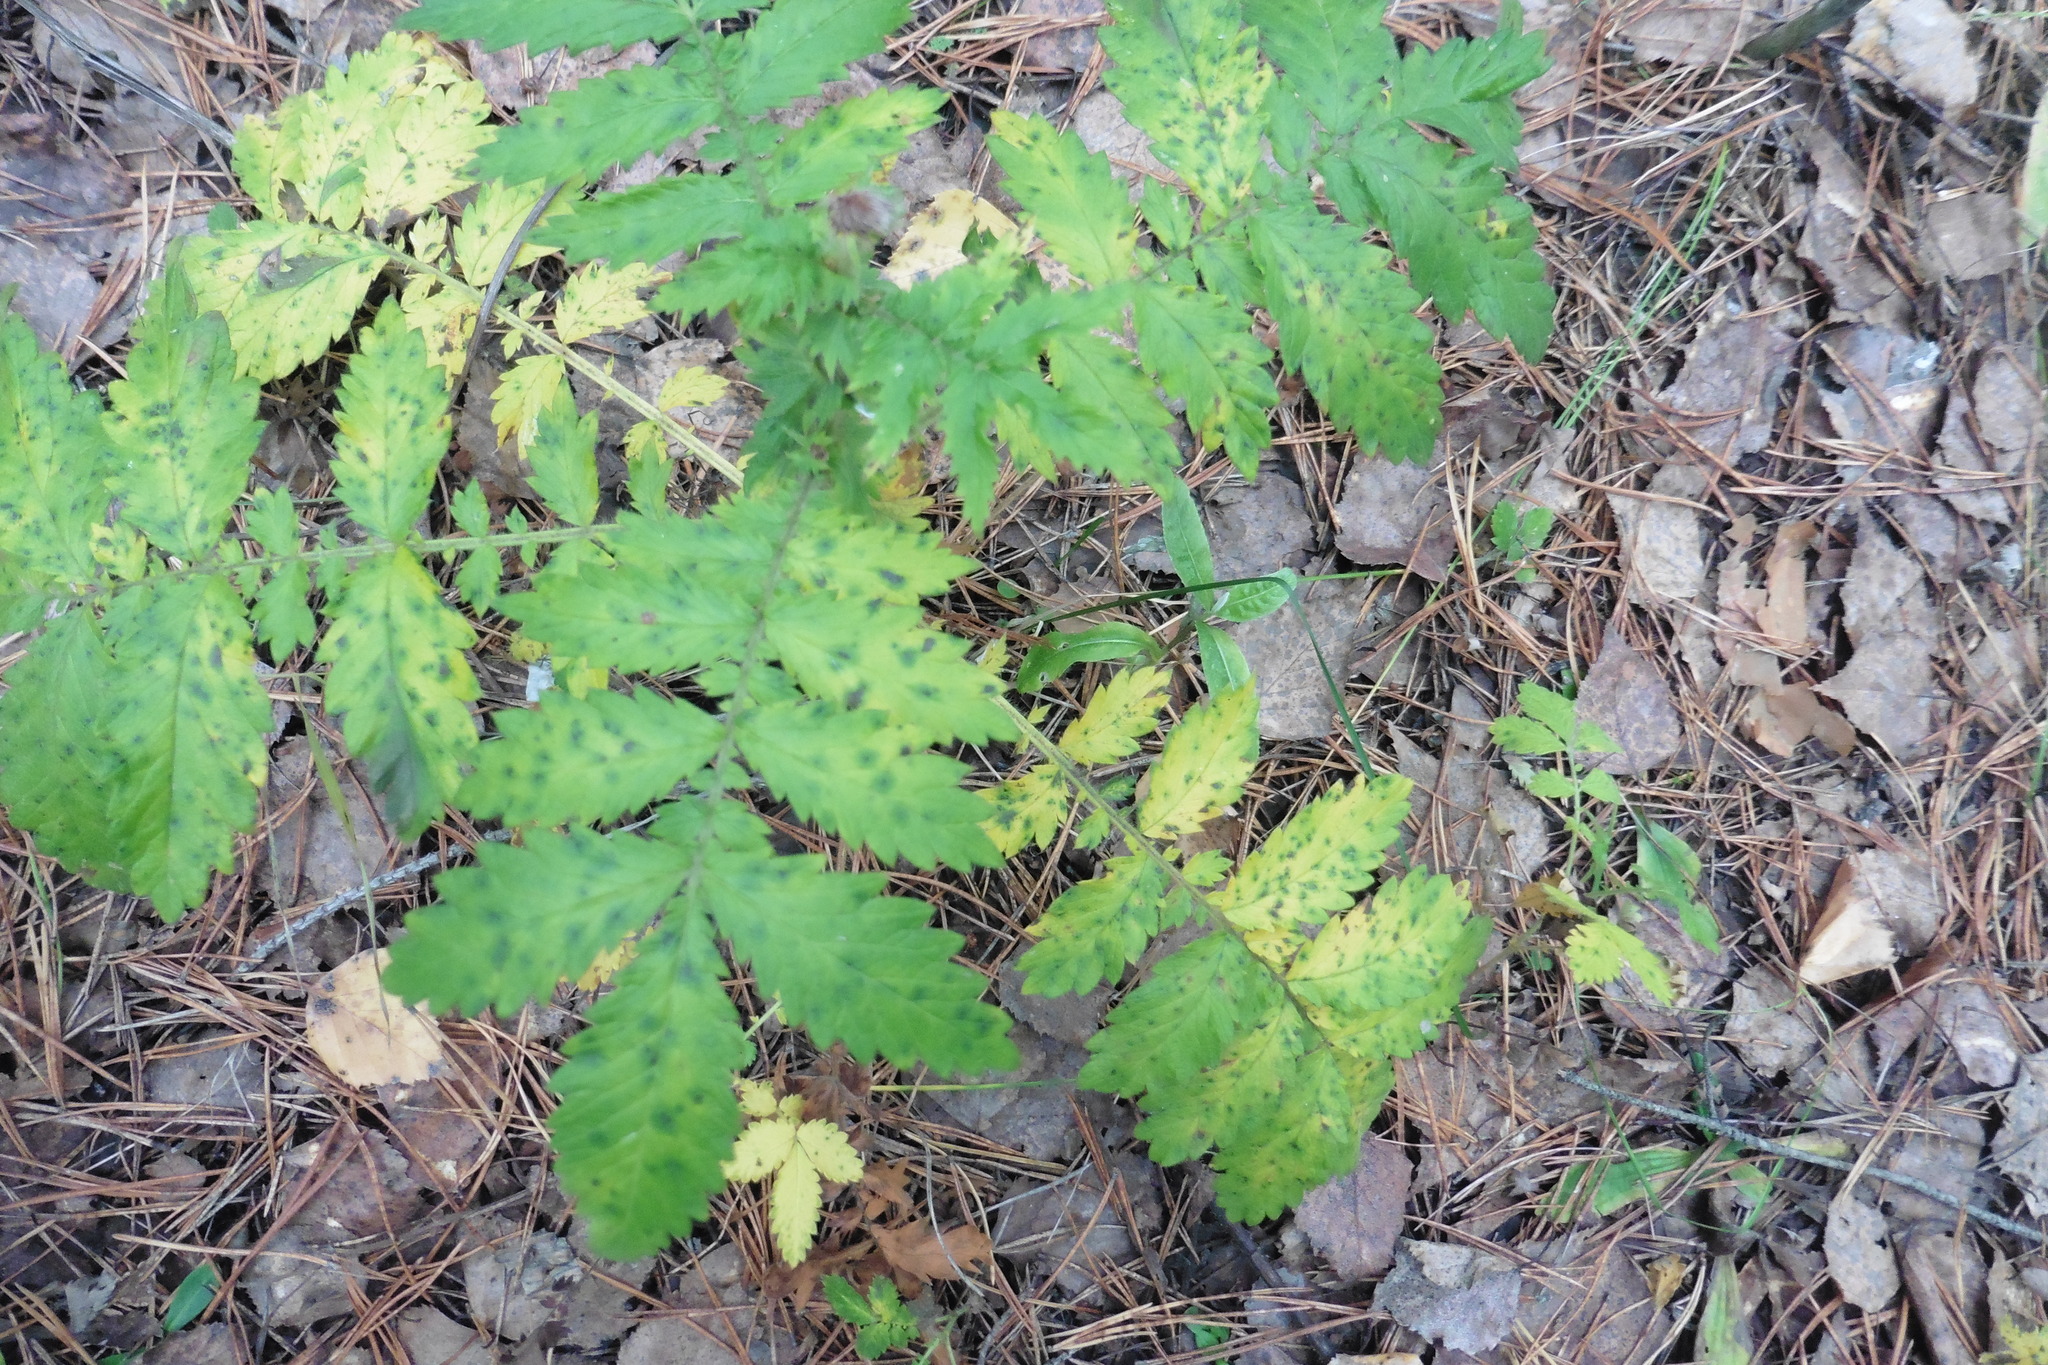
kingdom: Plantae
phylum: Tracheophyta
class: Magnoliopsida
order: Rosales
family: Rosaceae
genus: Agrimonia
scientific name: Agrimonia eupatoria
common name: Agrimony
